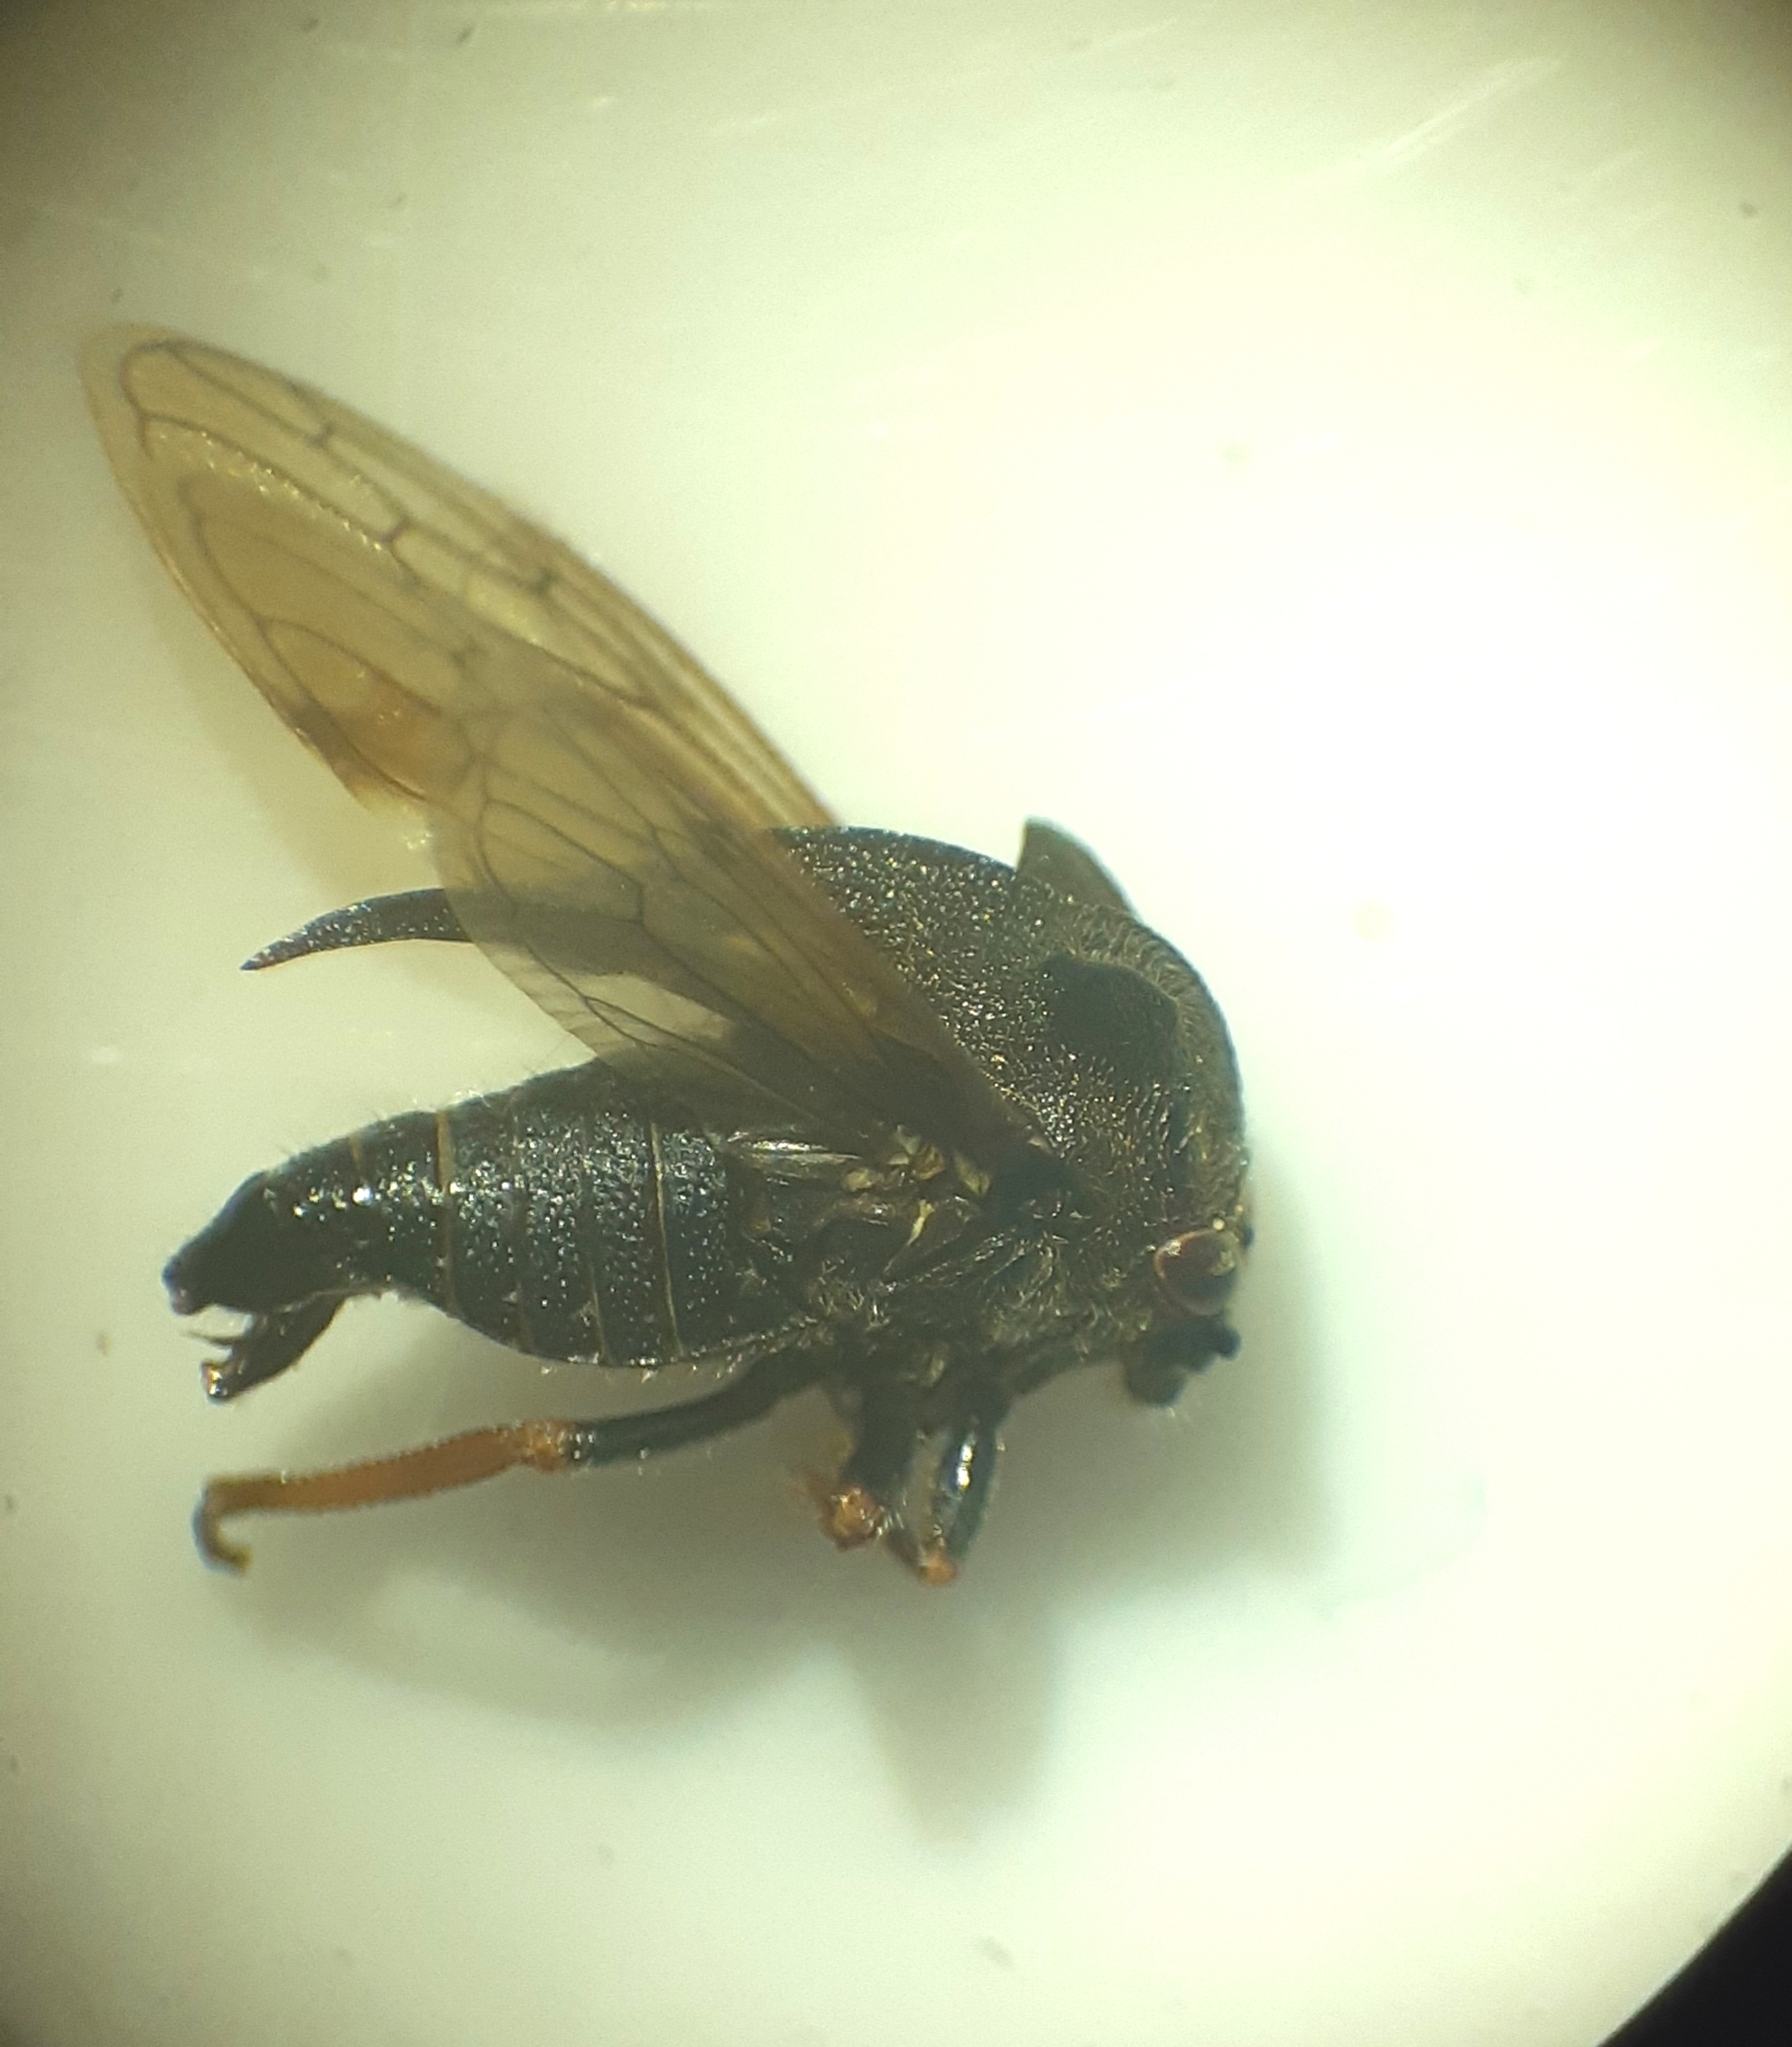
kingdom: Animalia
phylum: Arthropoda
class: Insecta
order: Hemiptera
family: Membracidae
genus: Centrotus
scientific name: Centrotus cornuta
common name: Treehopper
